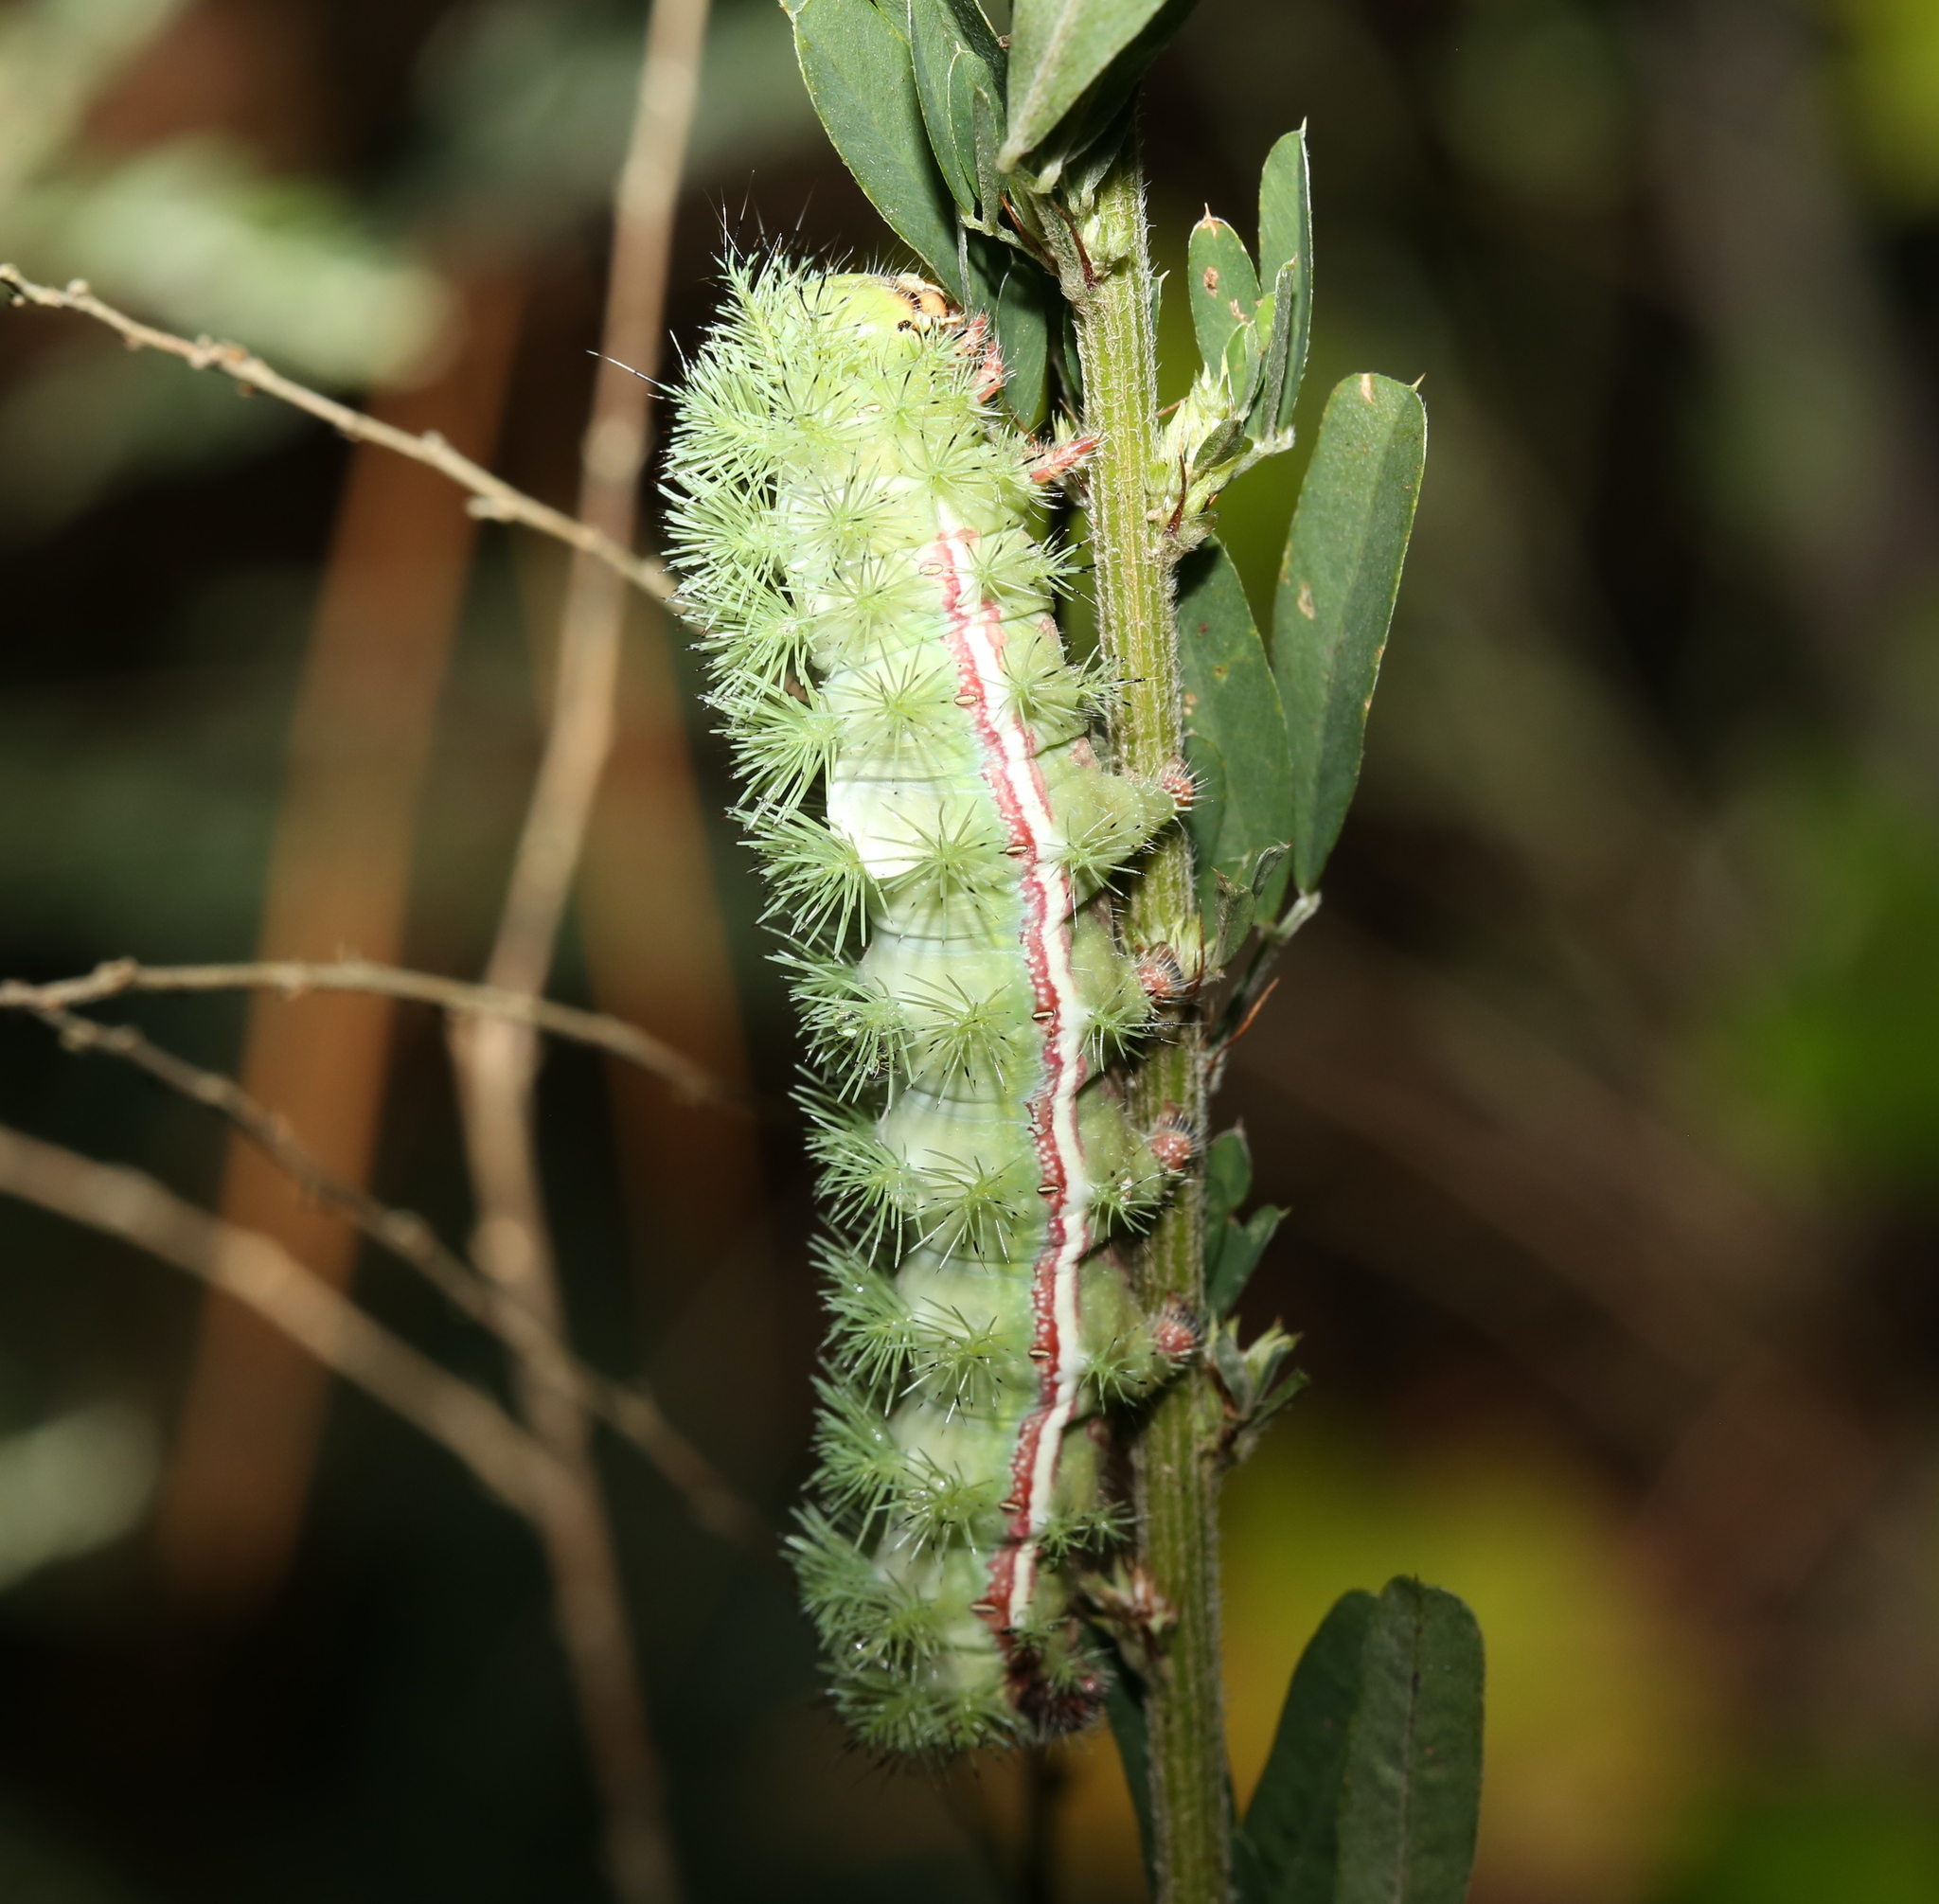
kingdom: Animalia
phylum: Arthropoda
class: Insecta
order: Lepidoptera
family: Saturniidae
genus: Automeris
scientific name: Automeris io
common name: Io moth
